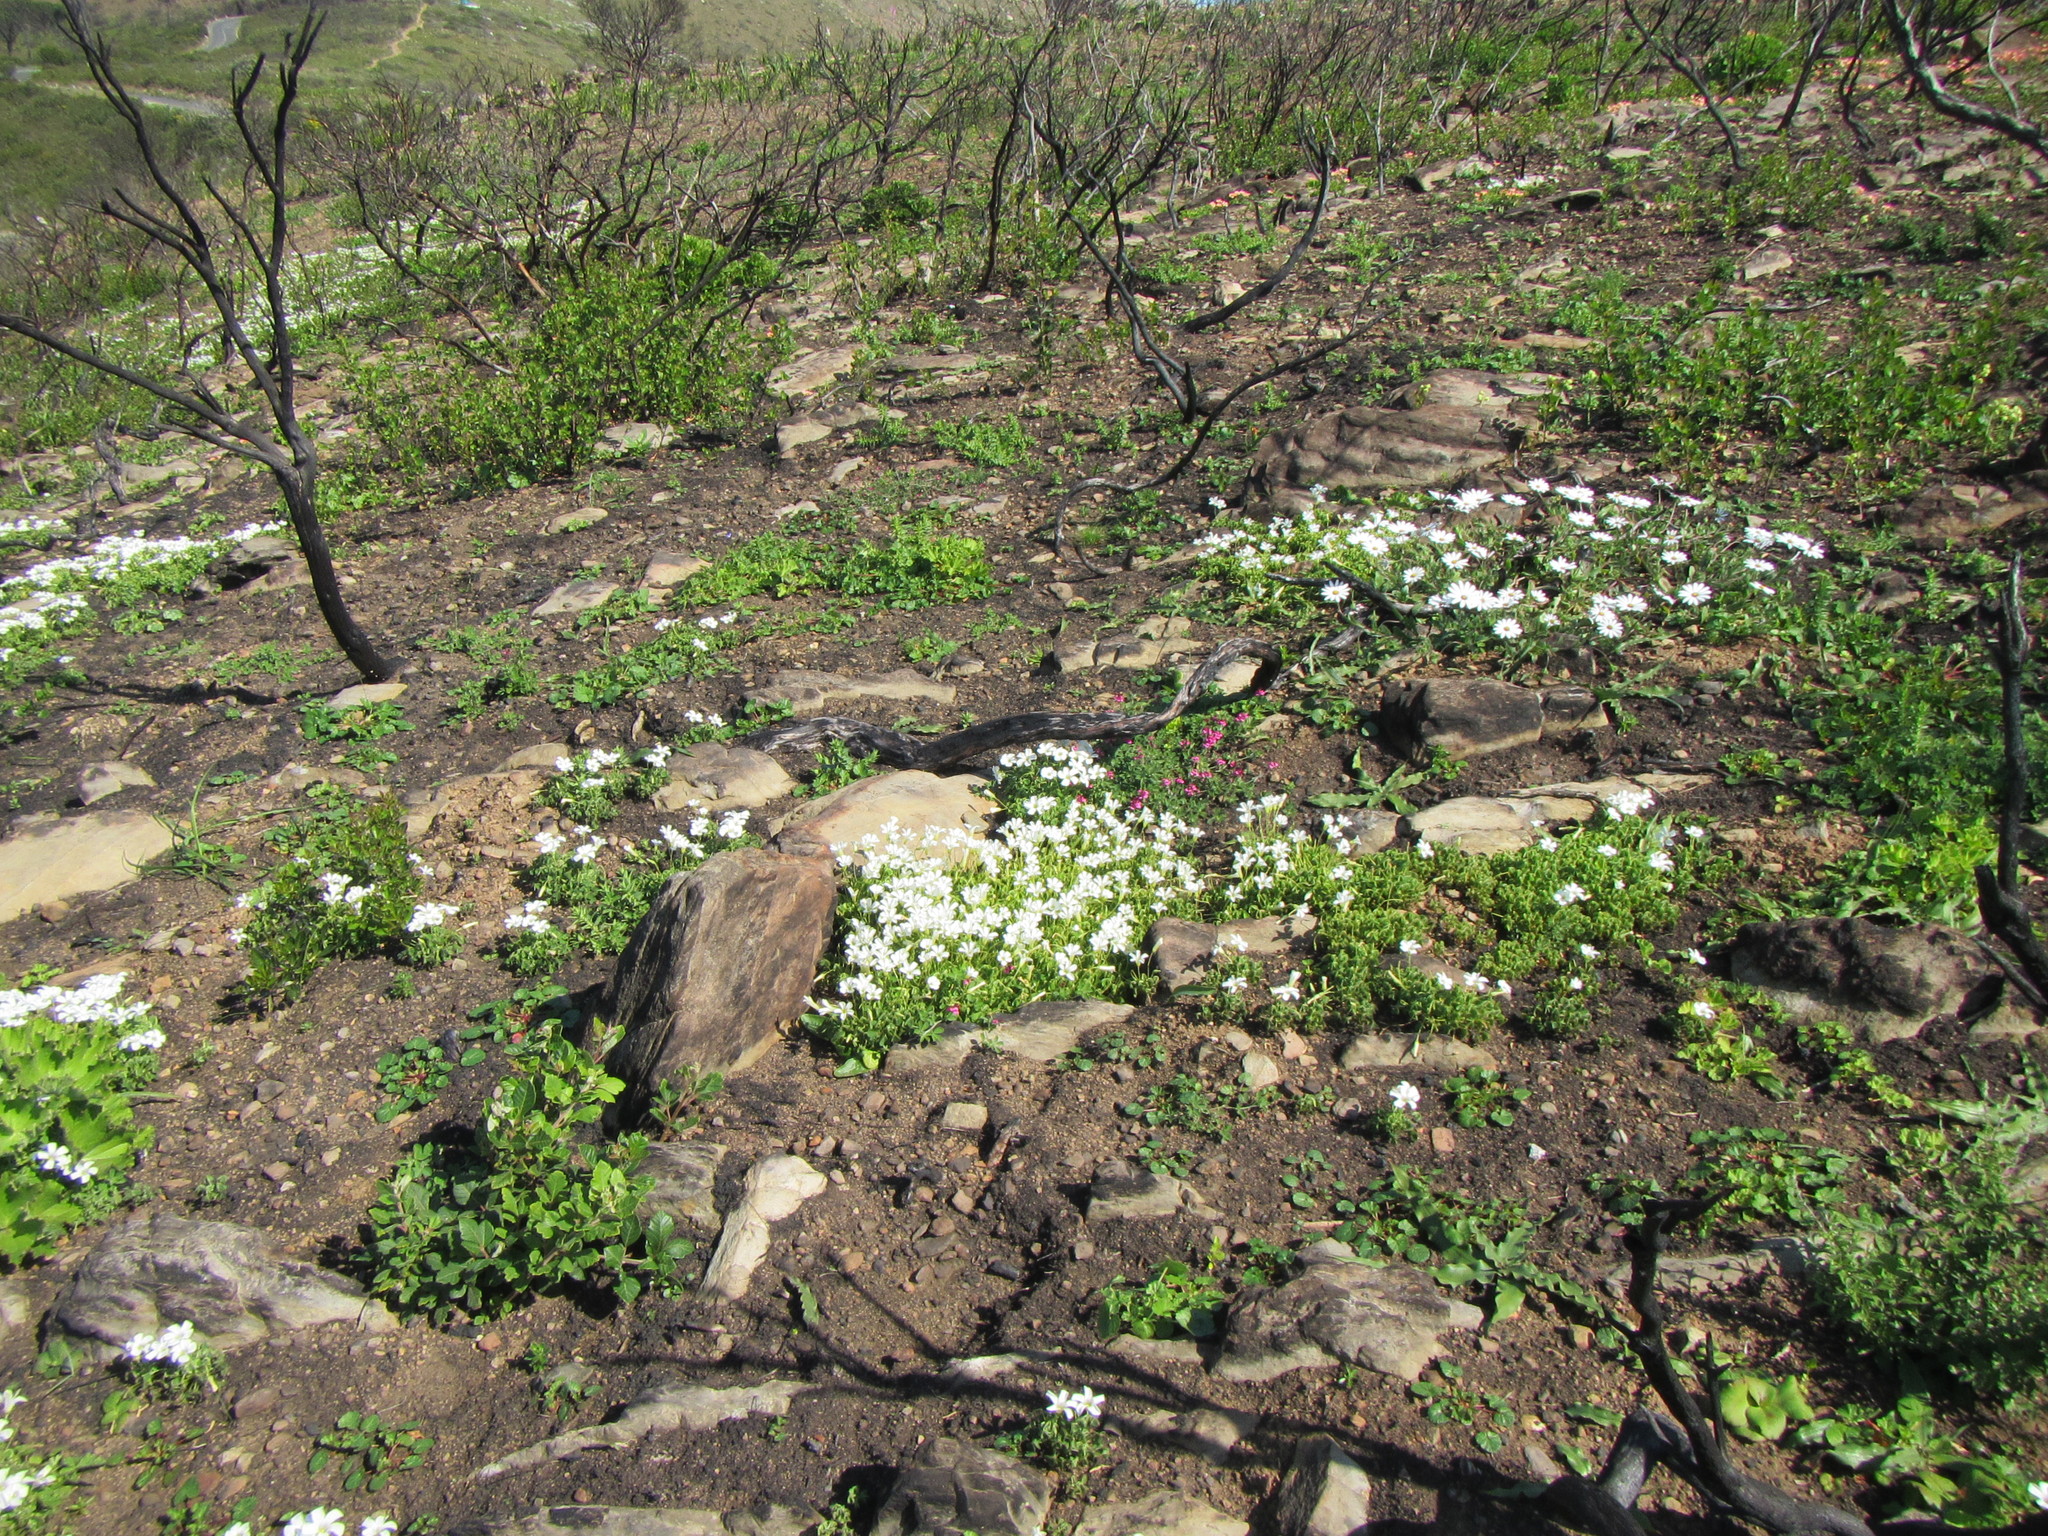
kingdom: Plantae
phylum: Tracheophyta
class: Magnoliopsida
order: Oxalidales
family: Oxalidaceae
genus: Oxalis
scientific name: Oxalis lanata
